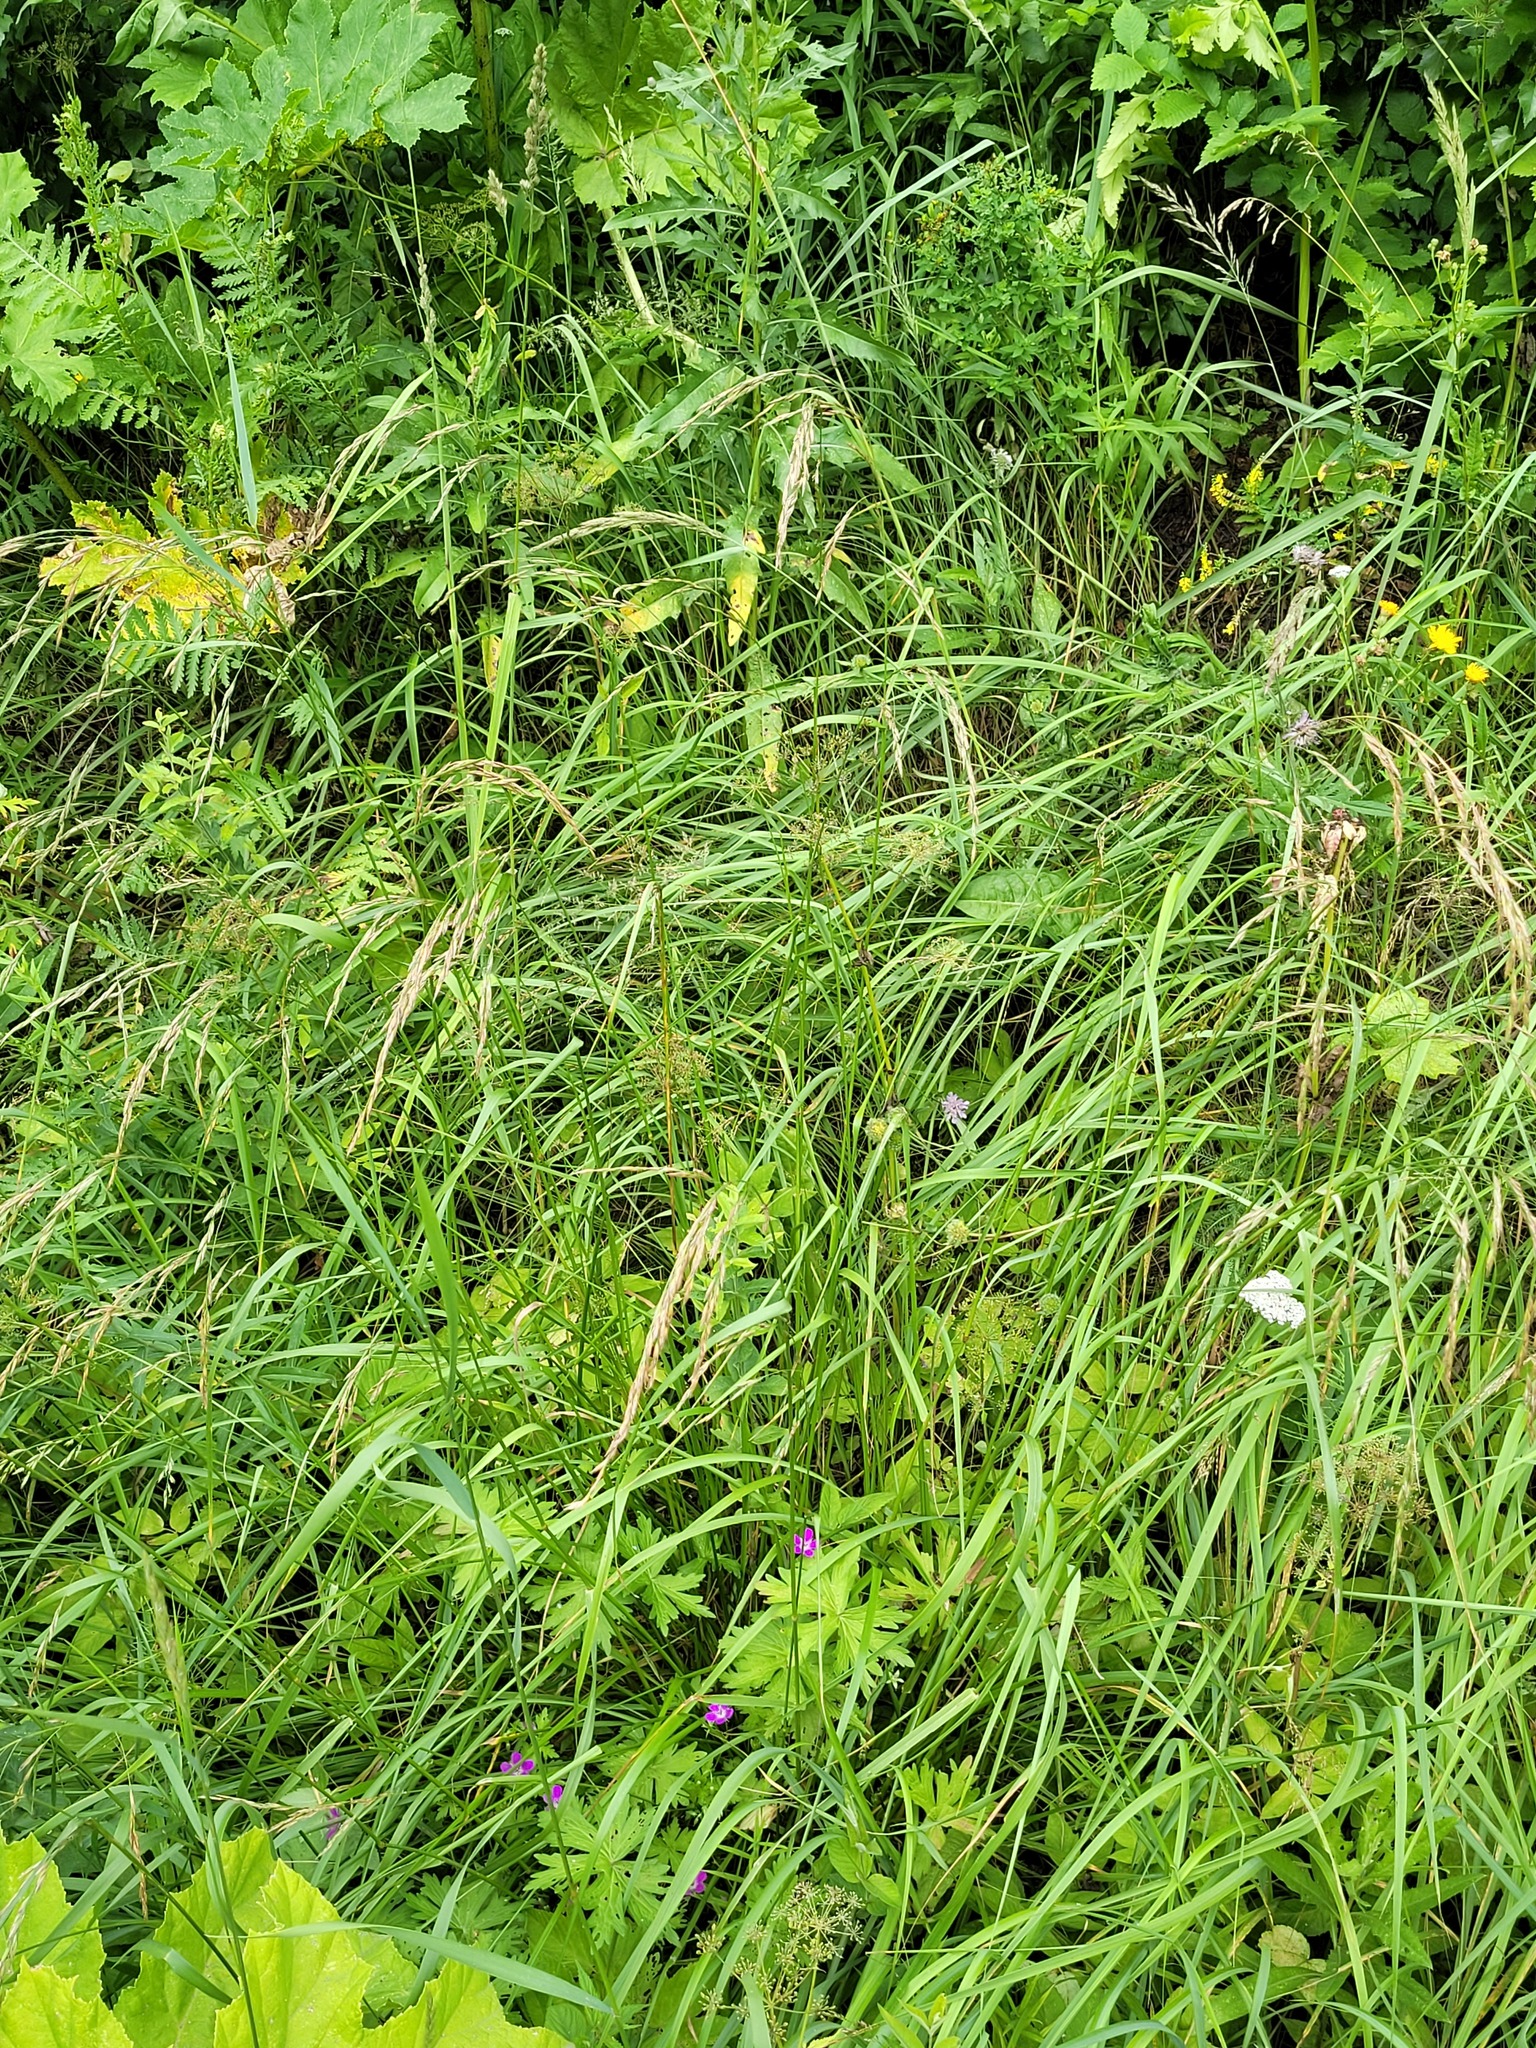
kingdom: Plantae
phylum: Tracheophyta
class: Magnoliopsida
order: Apiales
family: Apiaceae
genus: Aegopodium
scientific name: Aegopodium podagraria
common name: Ground-elder
